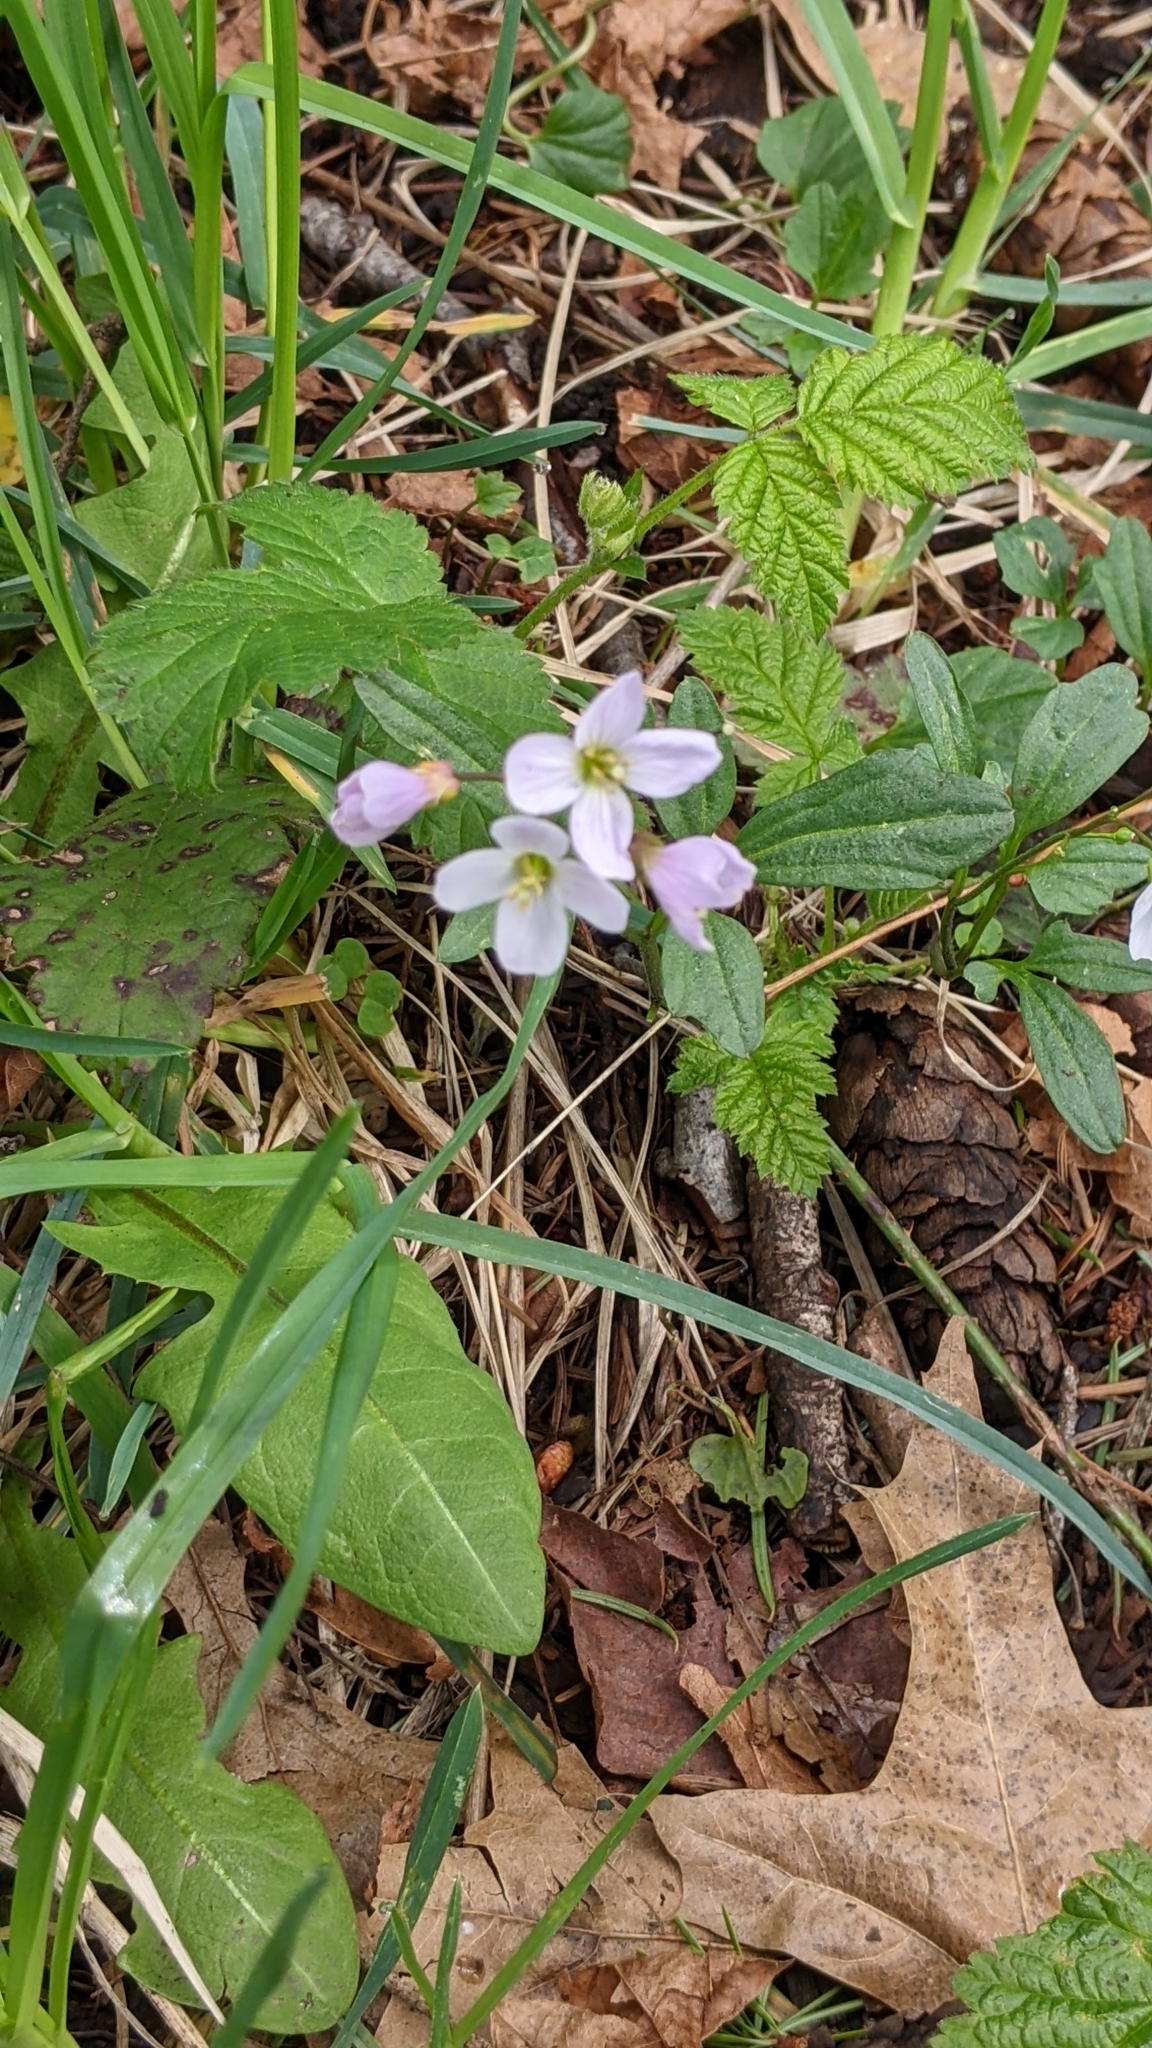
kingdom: Plantae
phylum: Tracheophyta
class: Magnoliopsida
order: Brassicales
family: Brassicaceae
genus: Cardamine
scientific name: Cardamine nuttallii
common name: Nuttall's toothwort
